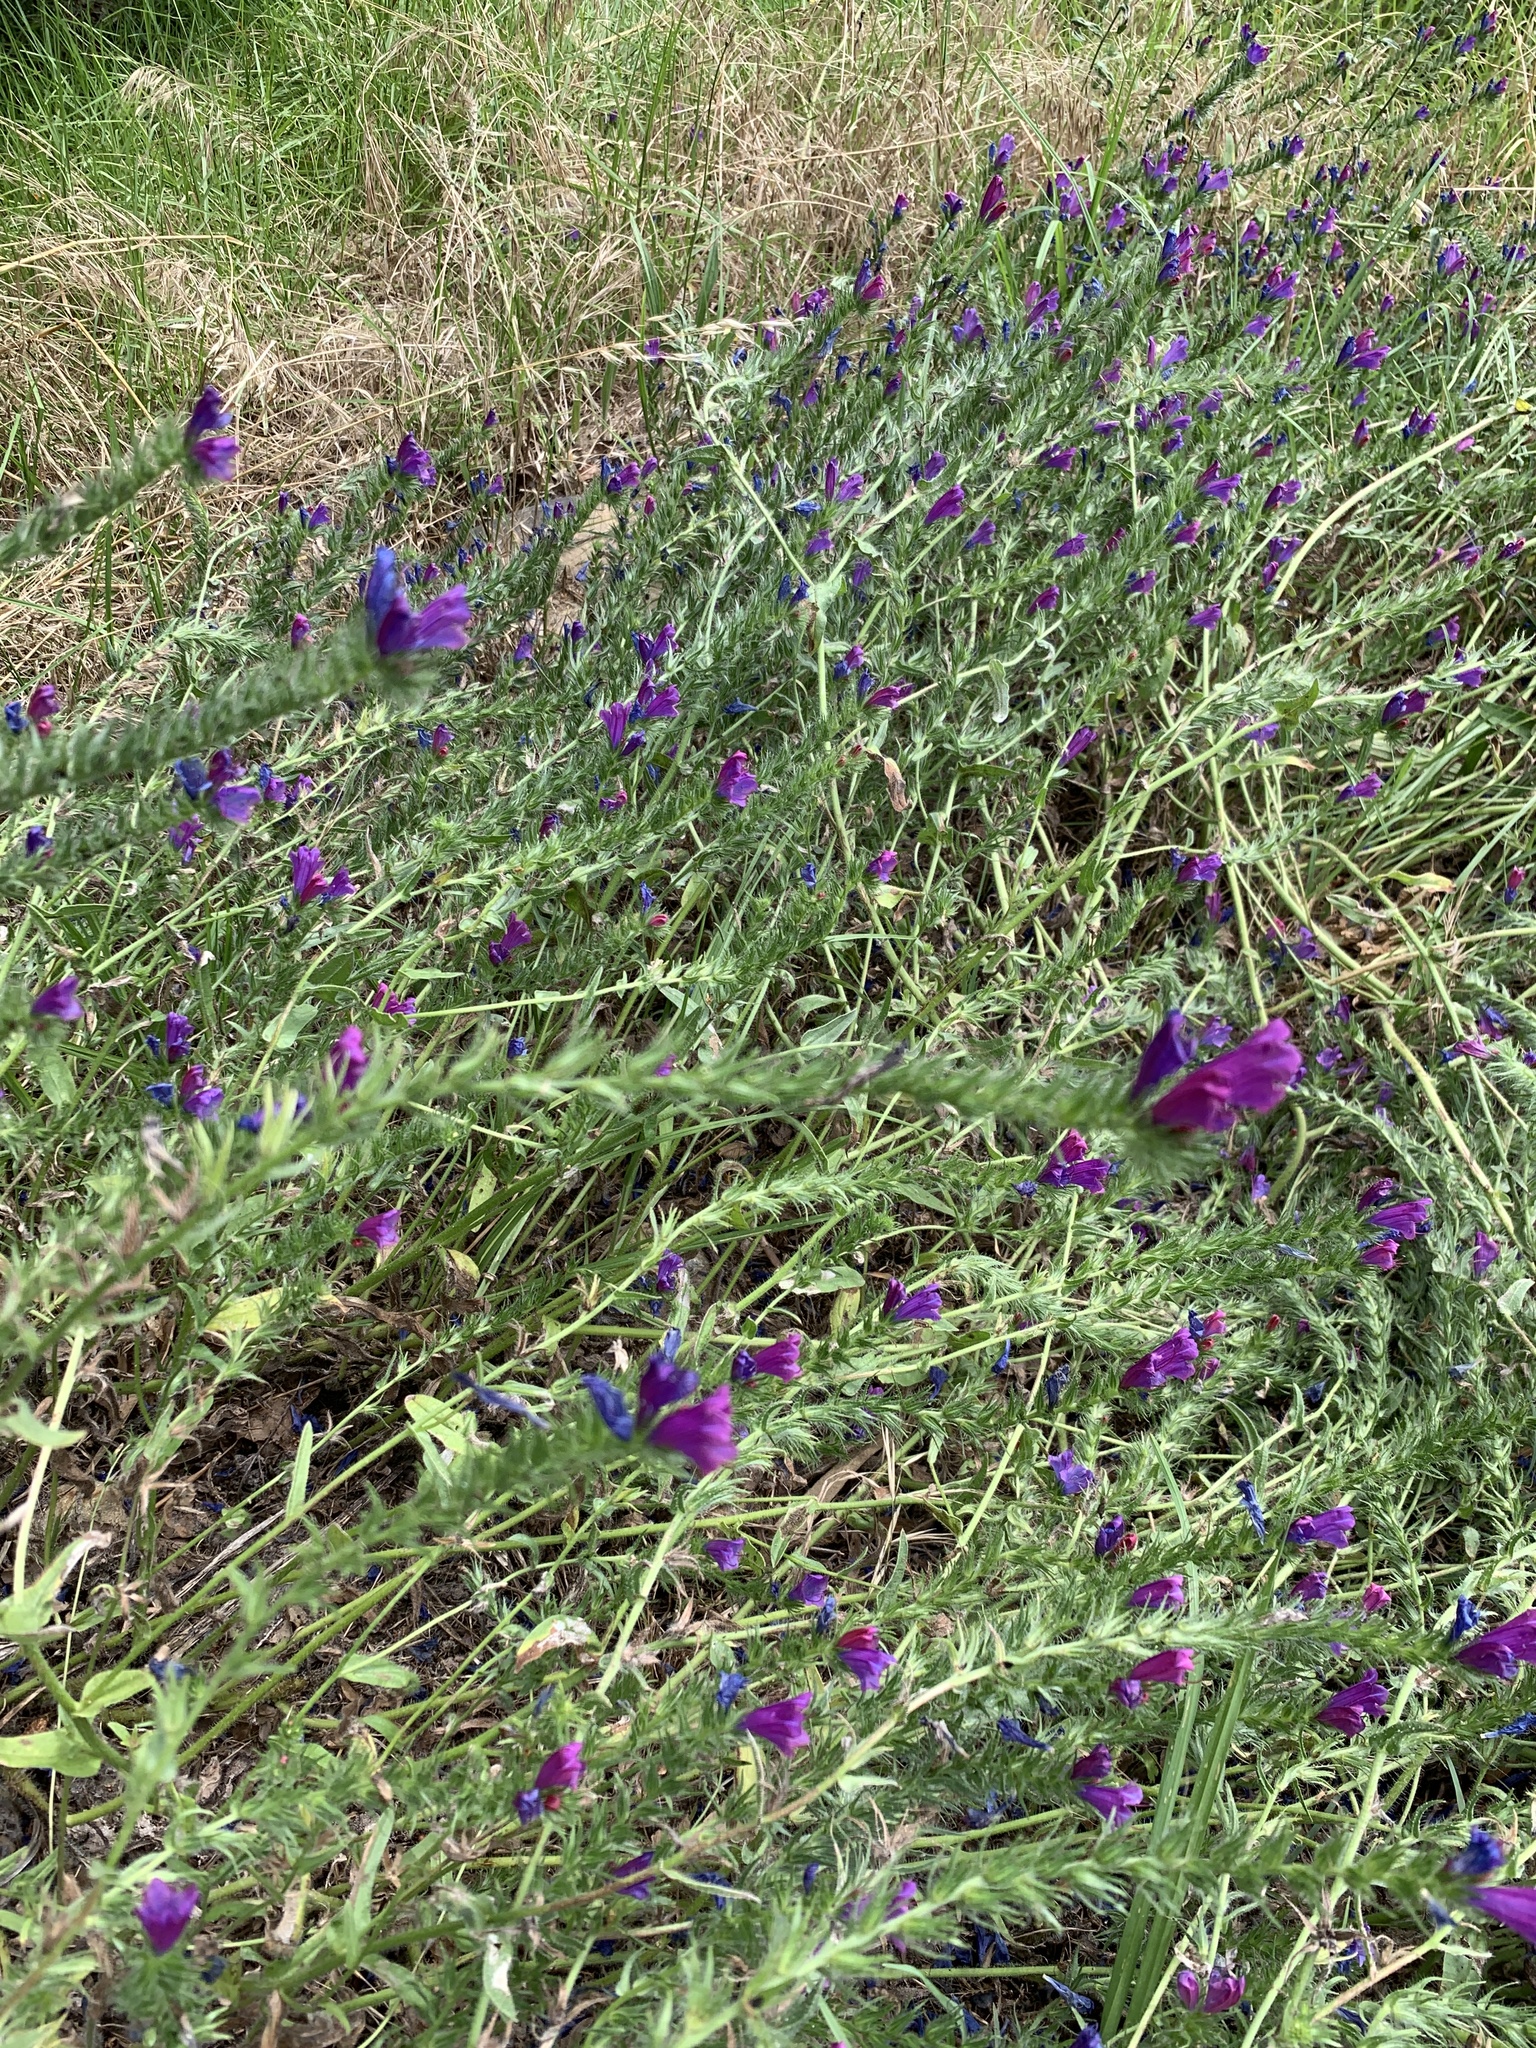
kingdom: Plantae
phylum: Tracheophyta
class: Magnoliopsida
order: Boraginales
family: Boraginaceae
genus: Echium
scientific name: Echium plantagineum
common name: Purple viper's-bugloss
